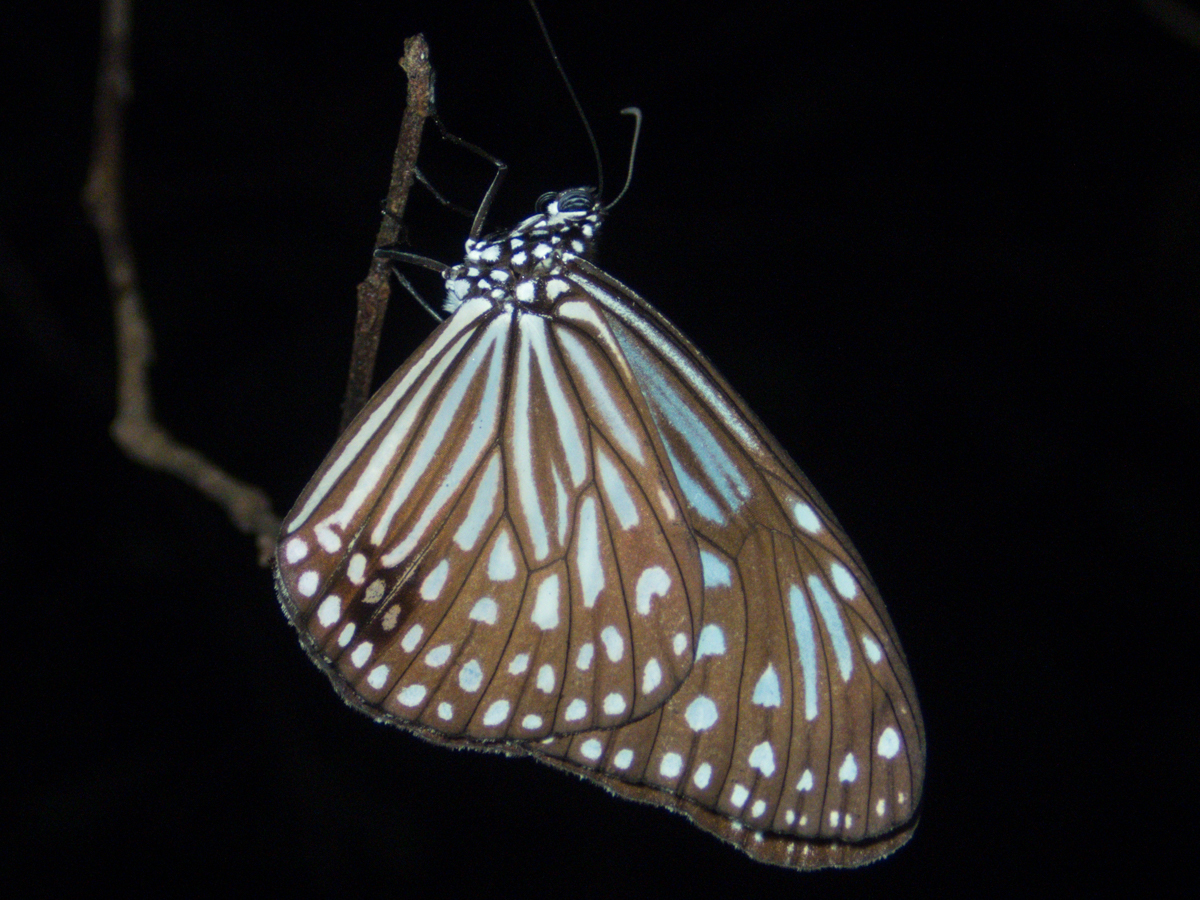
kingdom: Animalia
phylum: Arthropoda
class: Insecta
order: Lepidoptera
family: Nymphalidae
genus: Parantica
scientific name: Parantica agleoides
